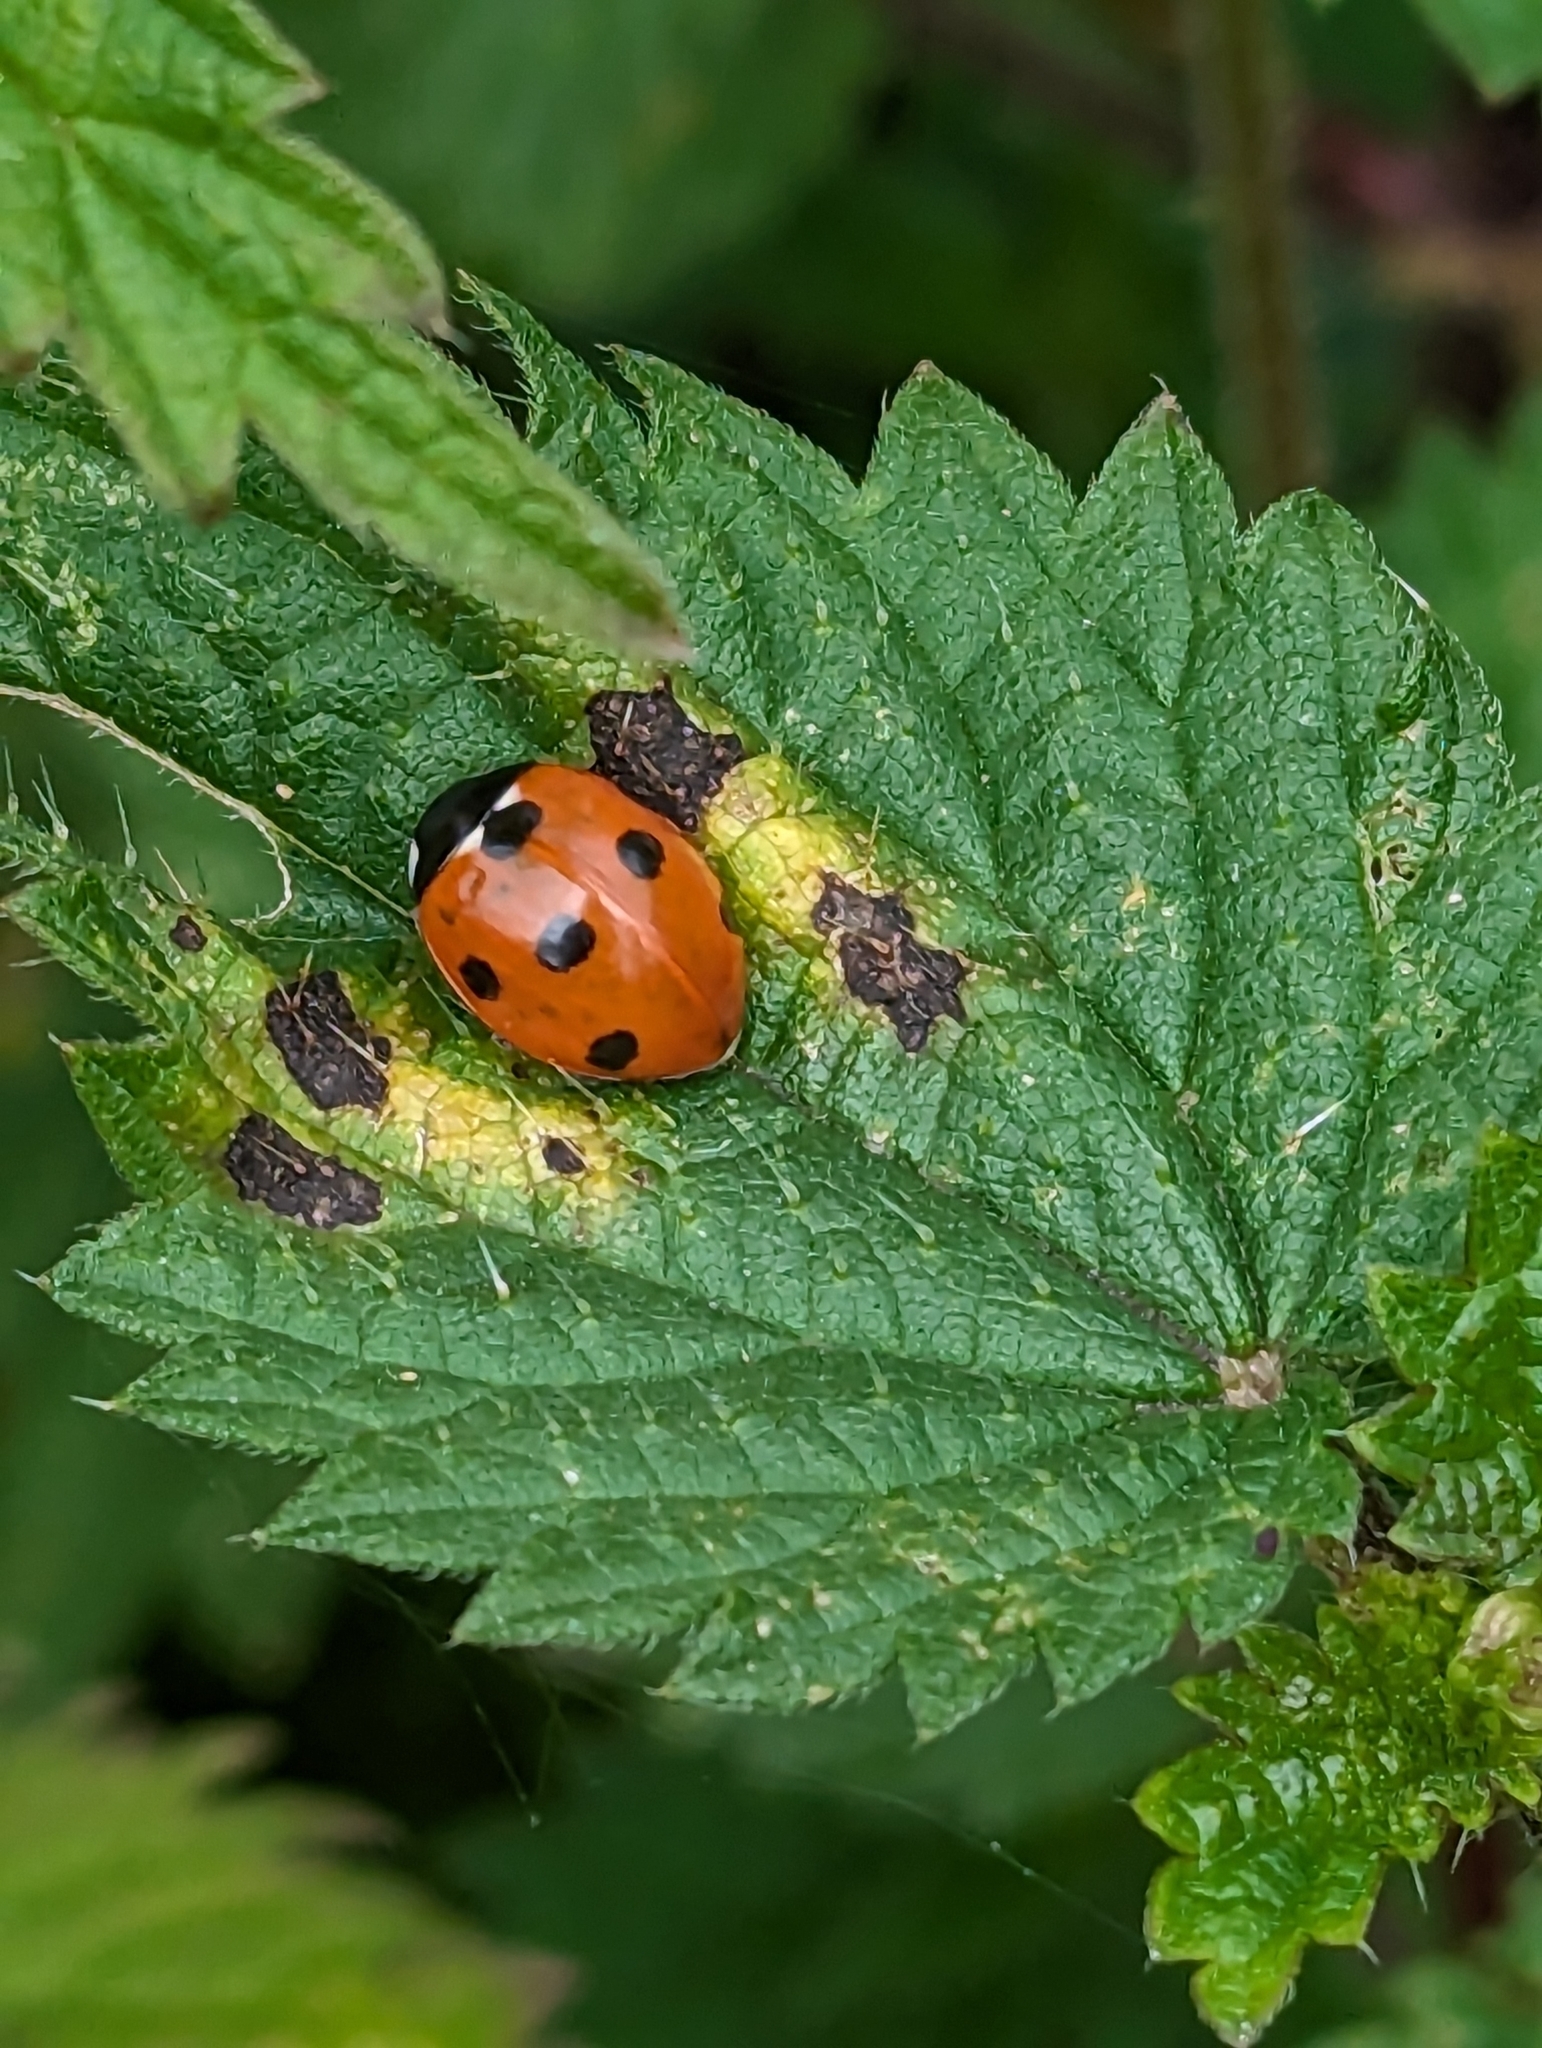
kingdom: Animalia
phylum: Arthropoda
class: Insecta
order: Coleoptera
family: Coccinellidae
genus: Coccinella
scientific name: Coccinella septempunctata
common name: Sevenspotted lady beetle
